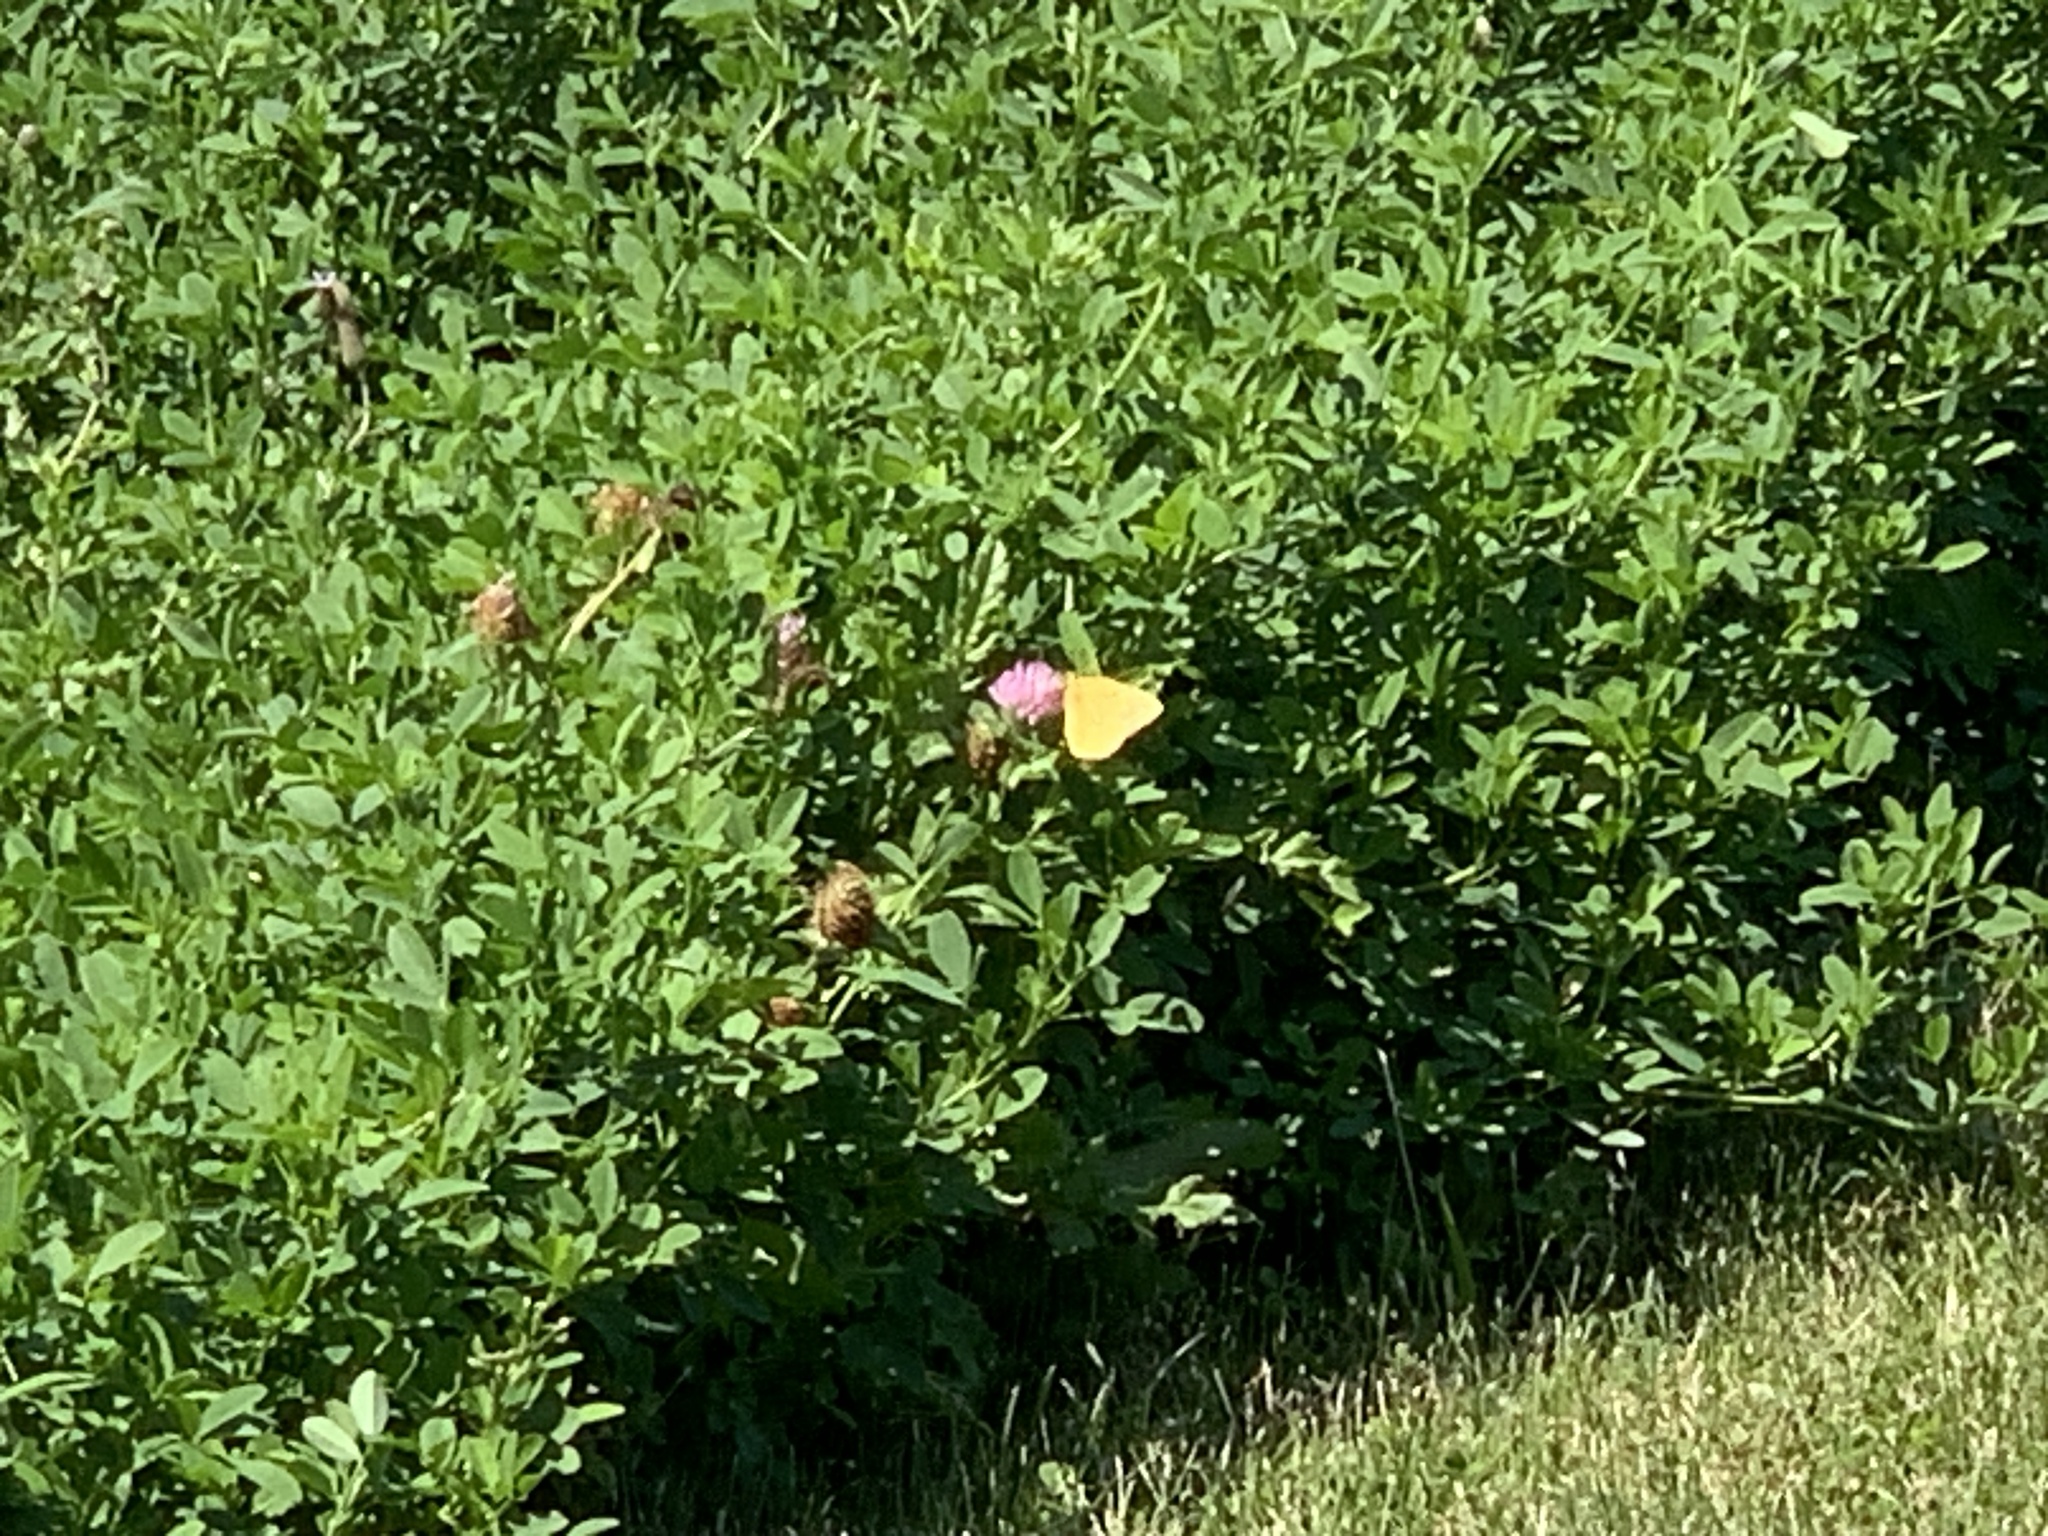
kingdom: Animalia
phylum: Arthropoda
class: Insecta
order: Lepidoptera
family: Pieridae
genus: Colias
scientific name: Colias eurytheme
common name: Alfalfa butterfly
